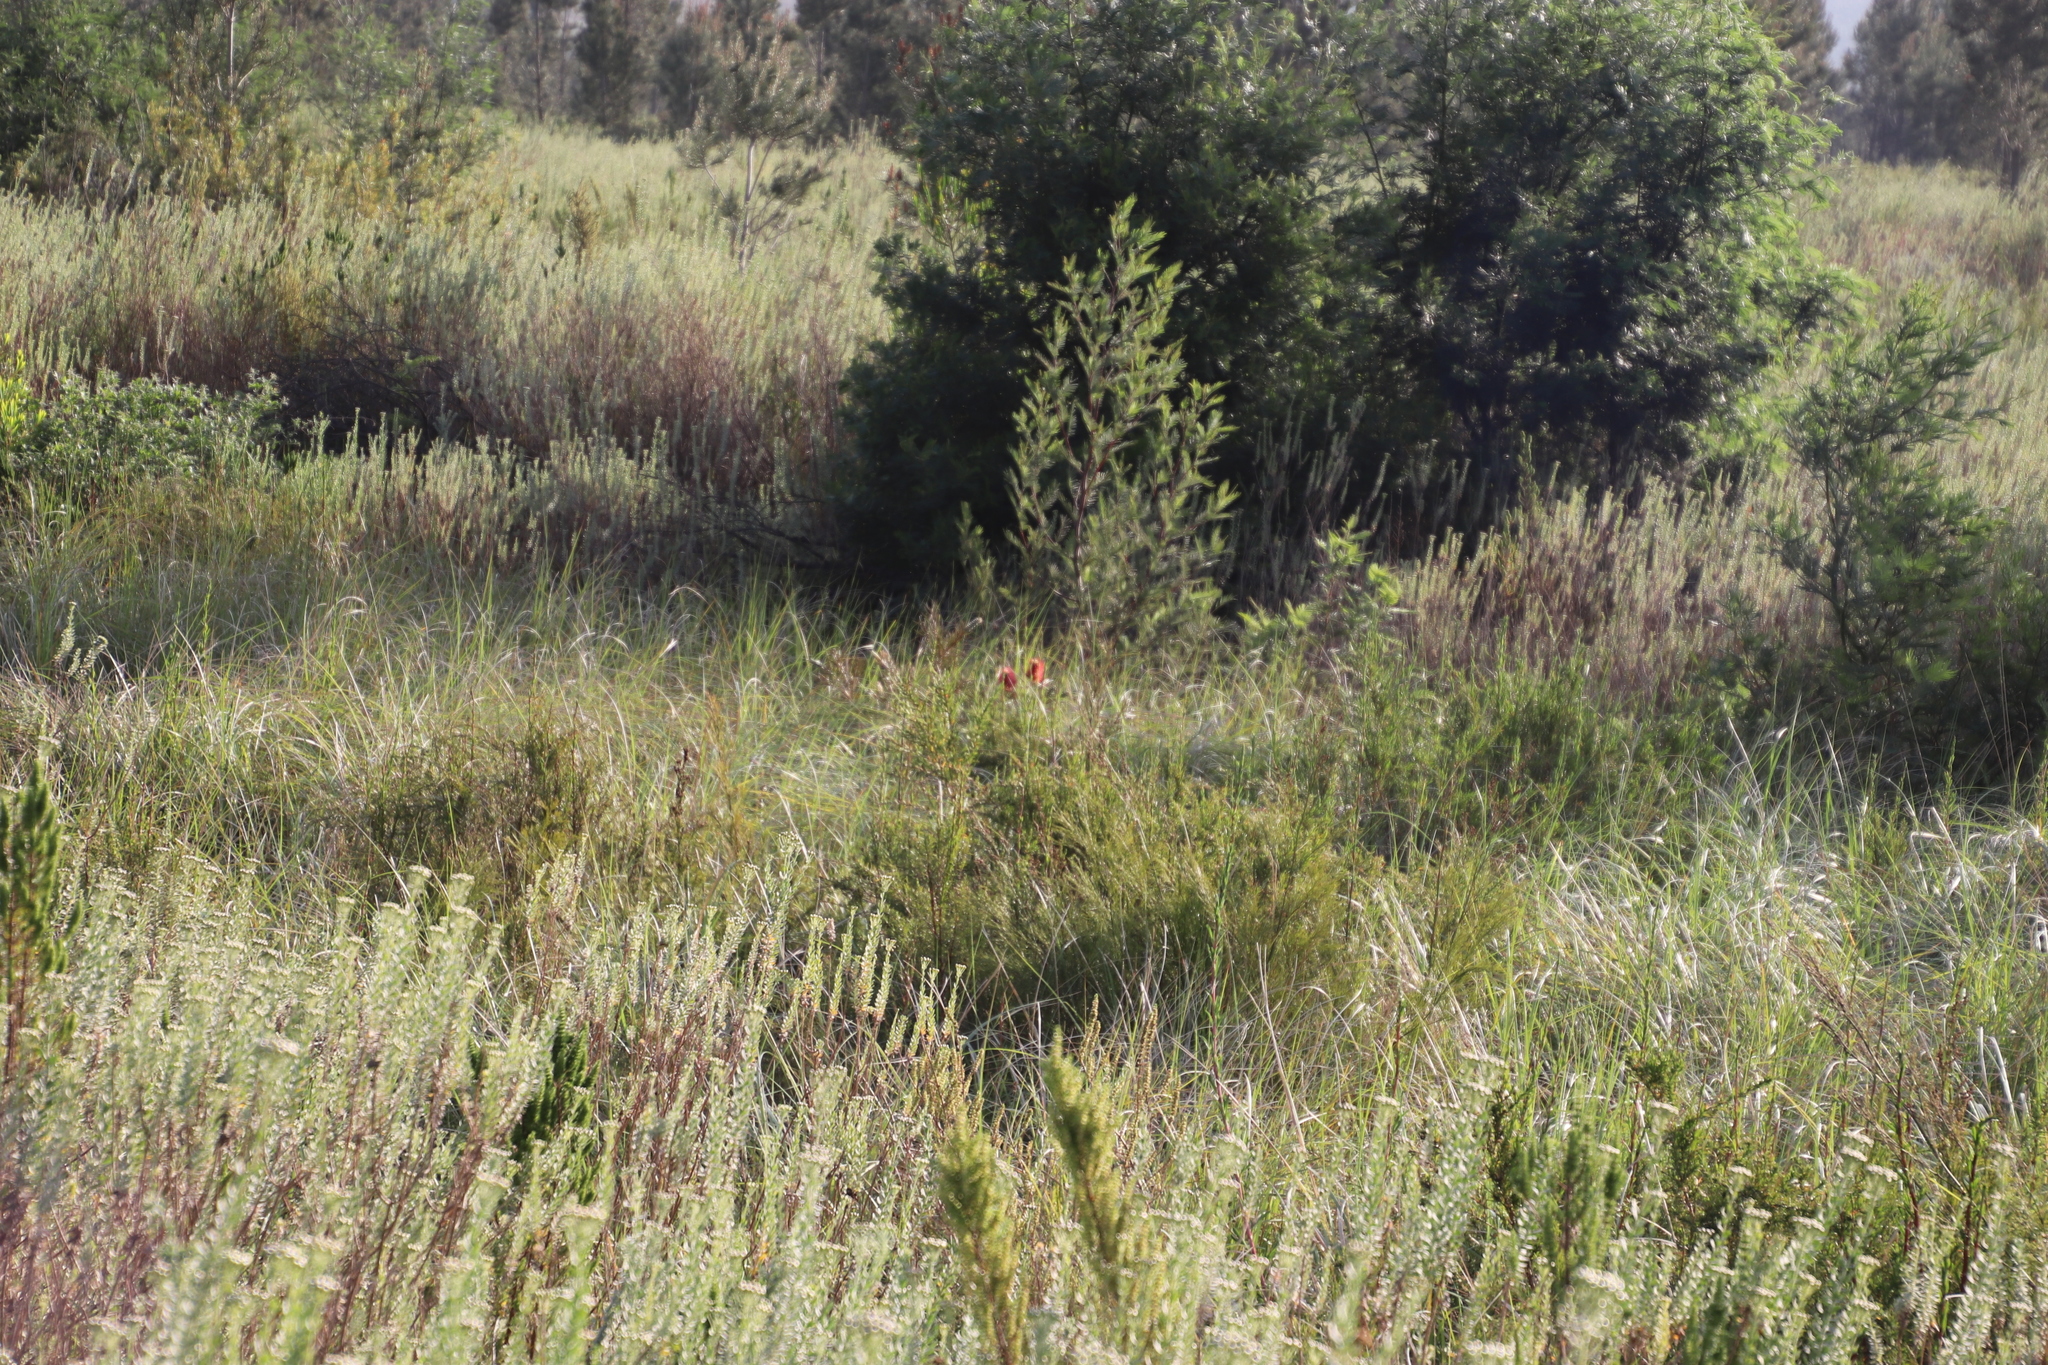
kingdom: Plantae
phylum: Tracheophyta
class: Magnoliopsida
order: Fabales
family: Fabaceae
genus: Acacia
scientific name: Acacia mearnsii
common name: Black wattle
